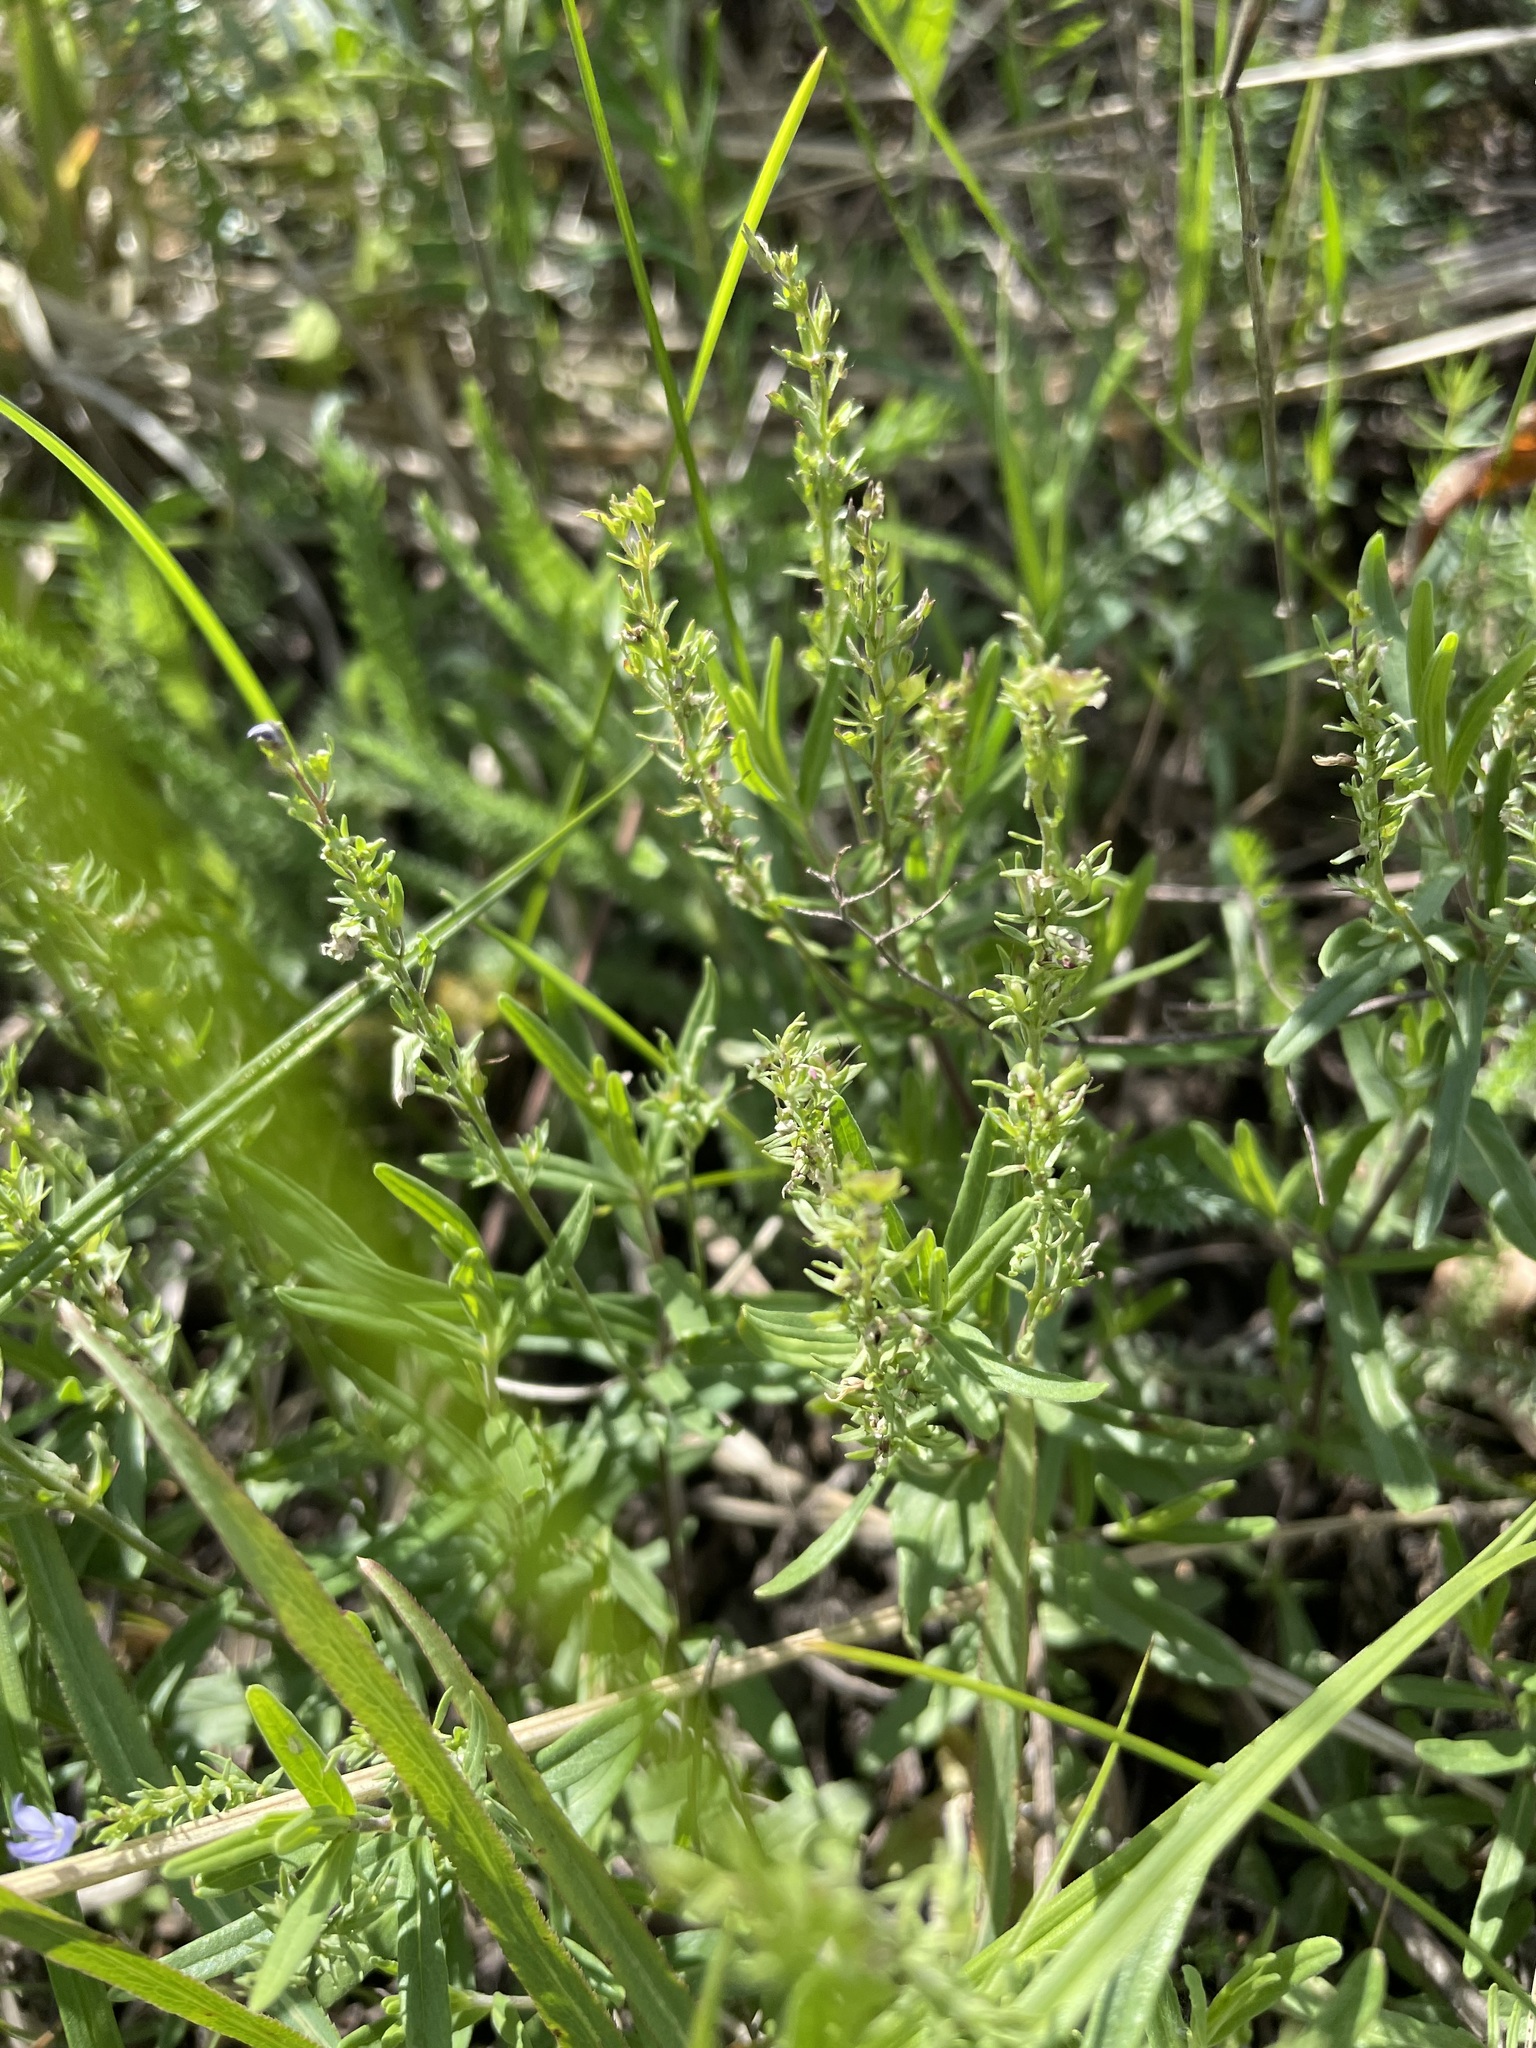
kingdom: Plantae
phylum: Tracheophyta
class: Magnoliopsida
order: Lamiales
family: Plantaginaceae
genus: Veronica
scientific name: Veronica prostrata
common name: Prostrate speedwell
